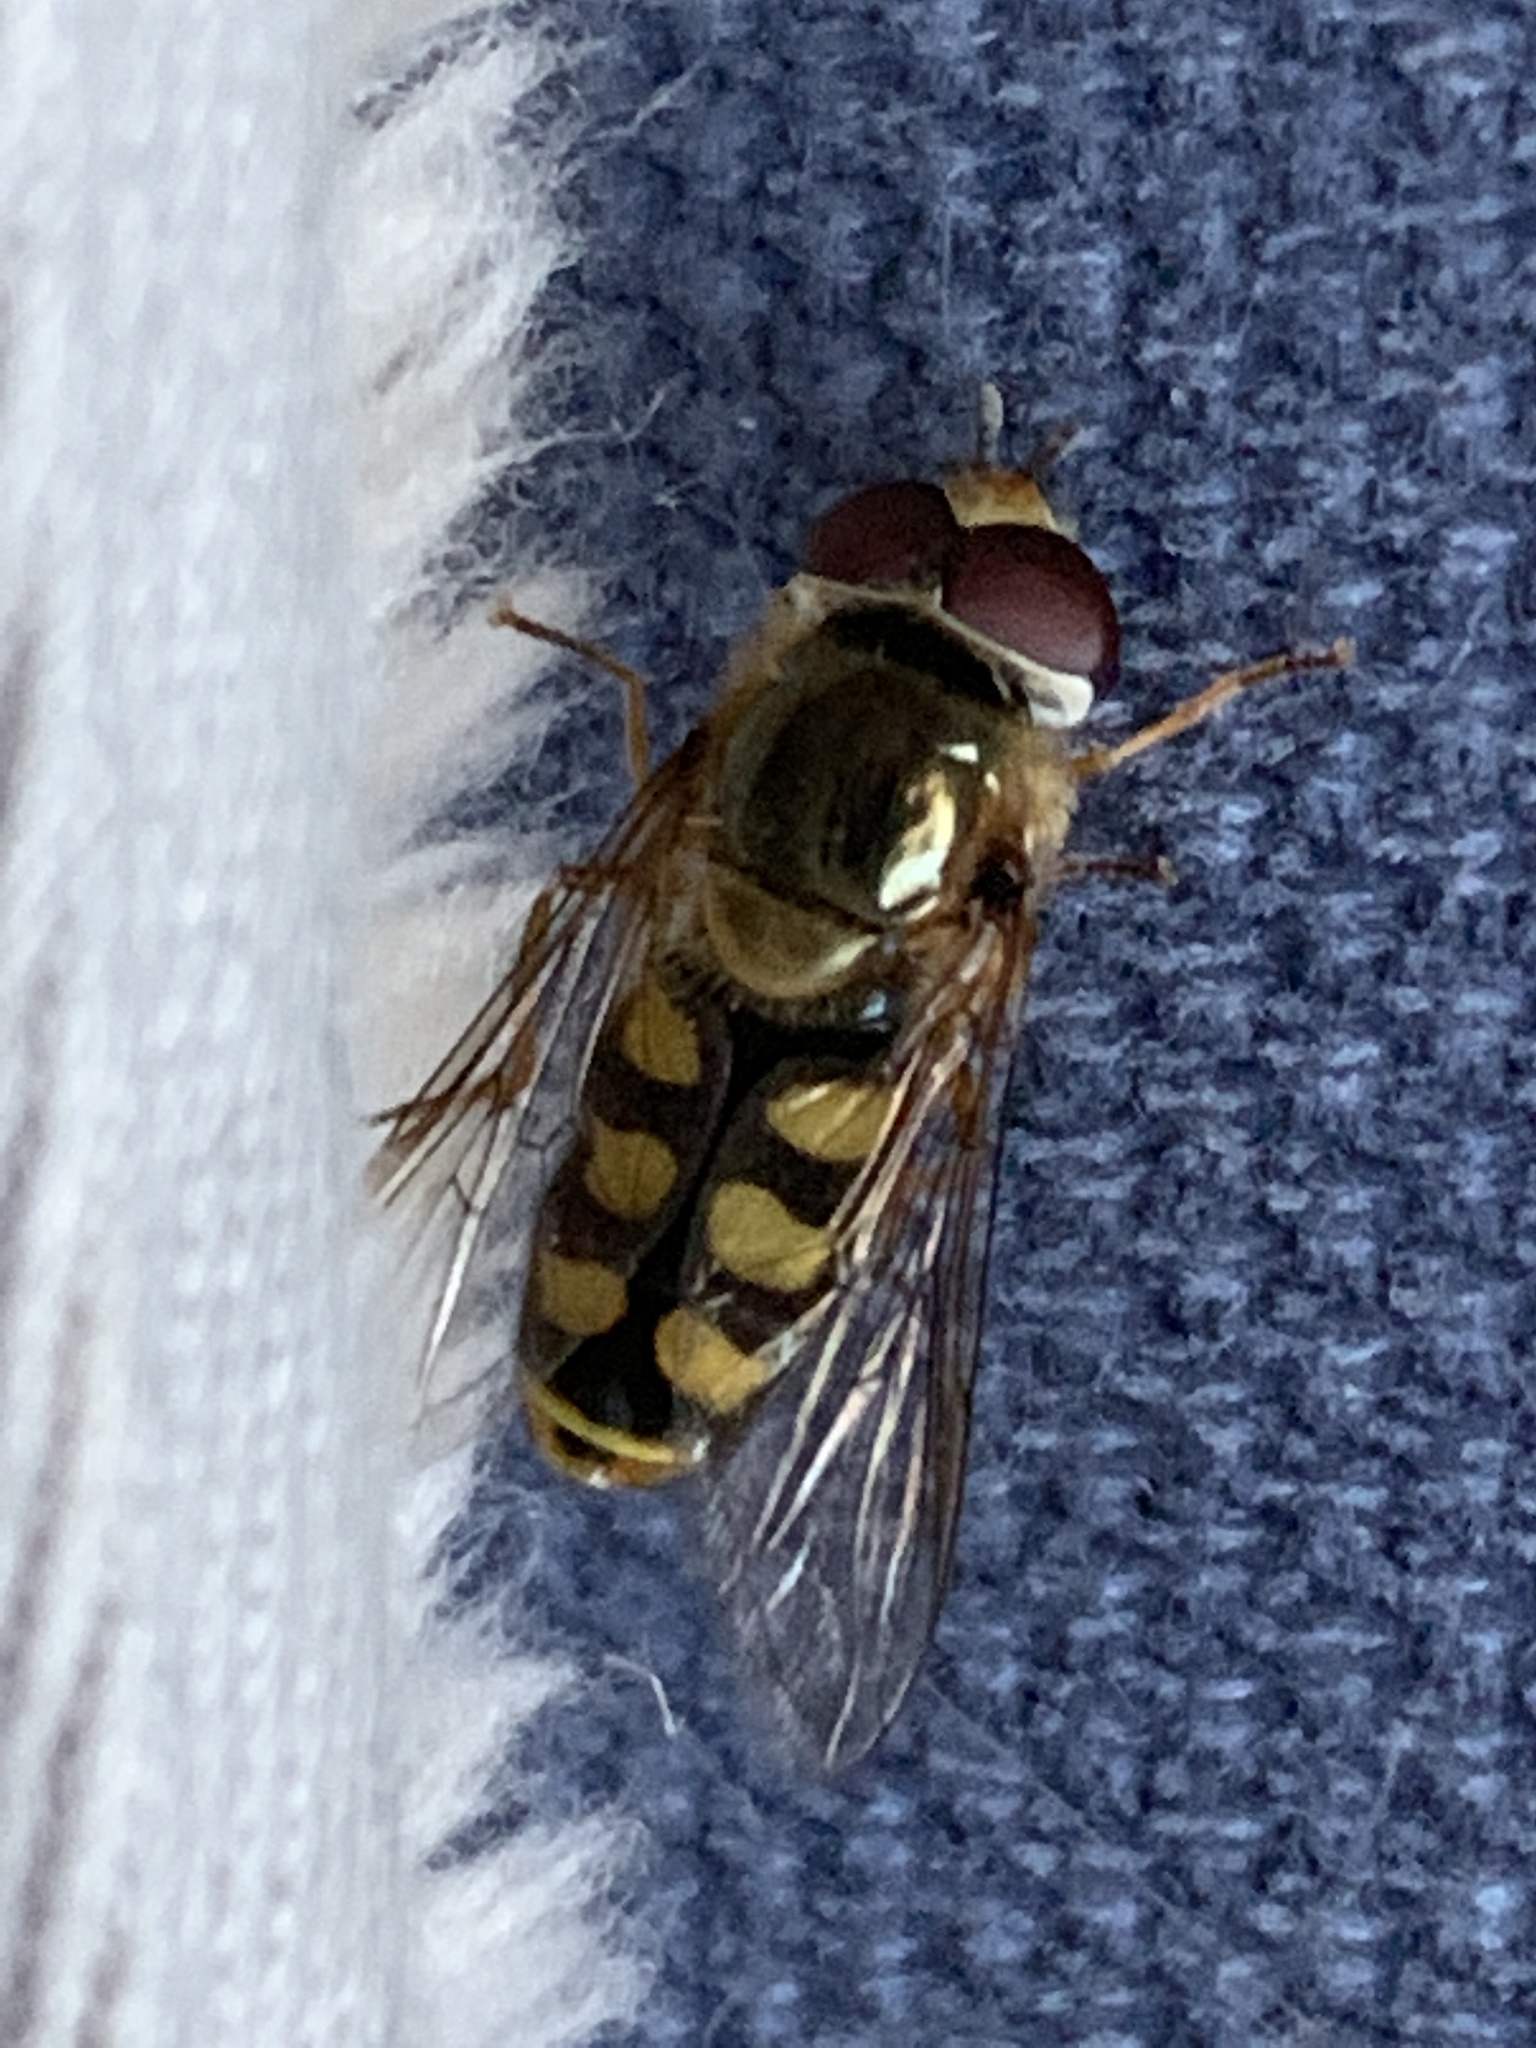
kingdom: Animalia
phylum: Arthropoda
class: Insecta
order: Diptera
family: Syrphidae
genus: Eupeodes
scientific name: Eupeodes
